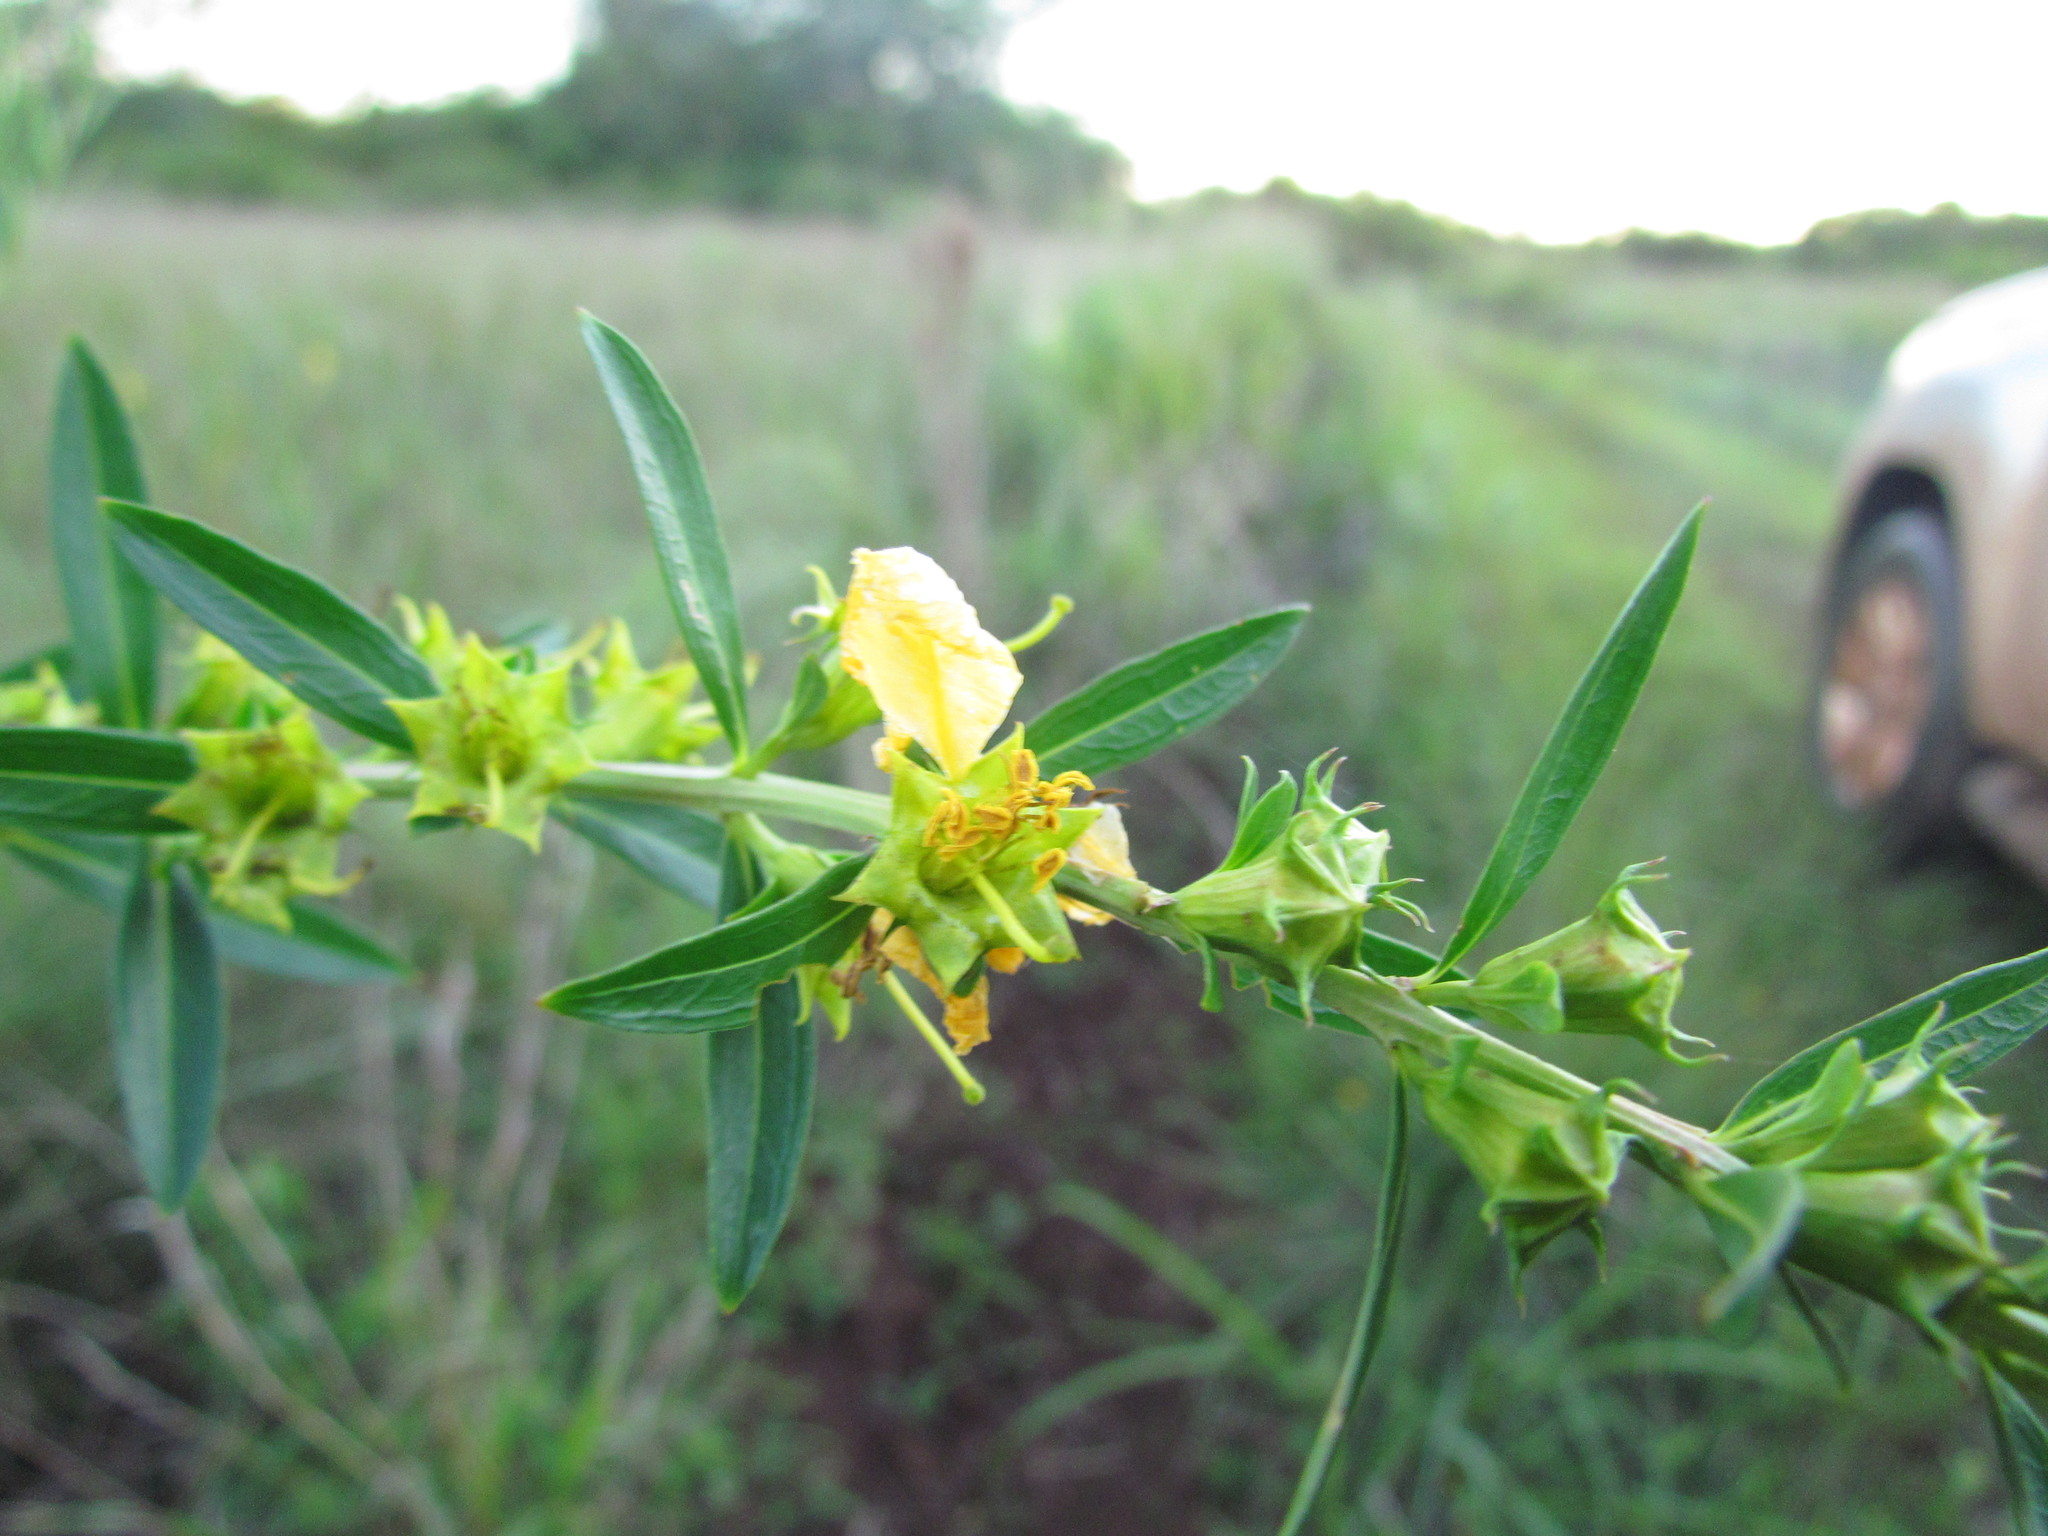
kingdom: Plantae
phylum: Tracheophyta
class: Magnoliopsida
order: Myrtales
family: Lythraceae
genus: Heimia
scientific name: Heimia salicifolia
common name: Willow-leaf heimia
